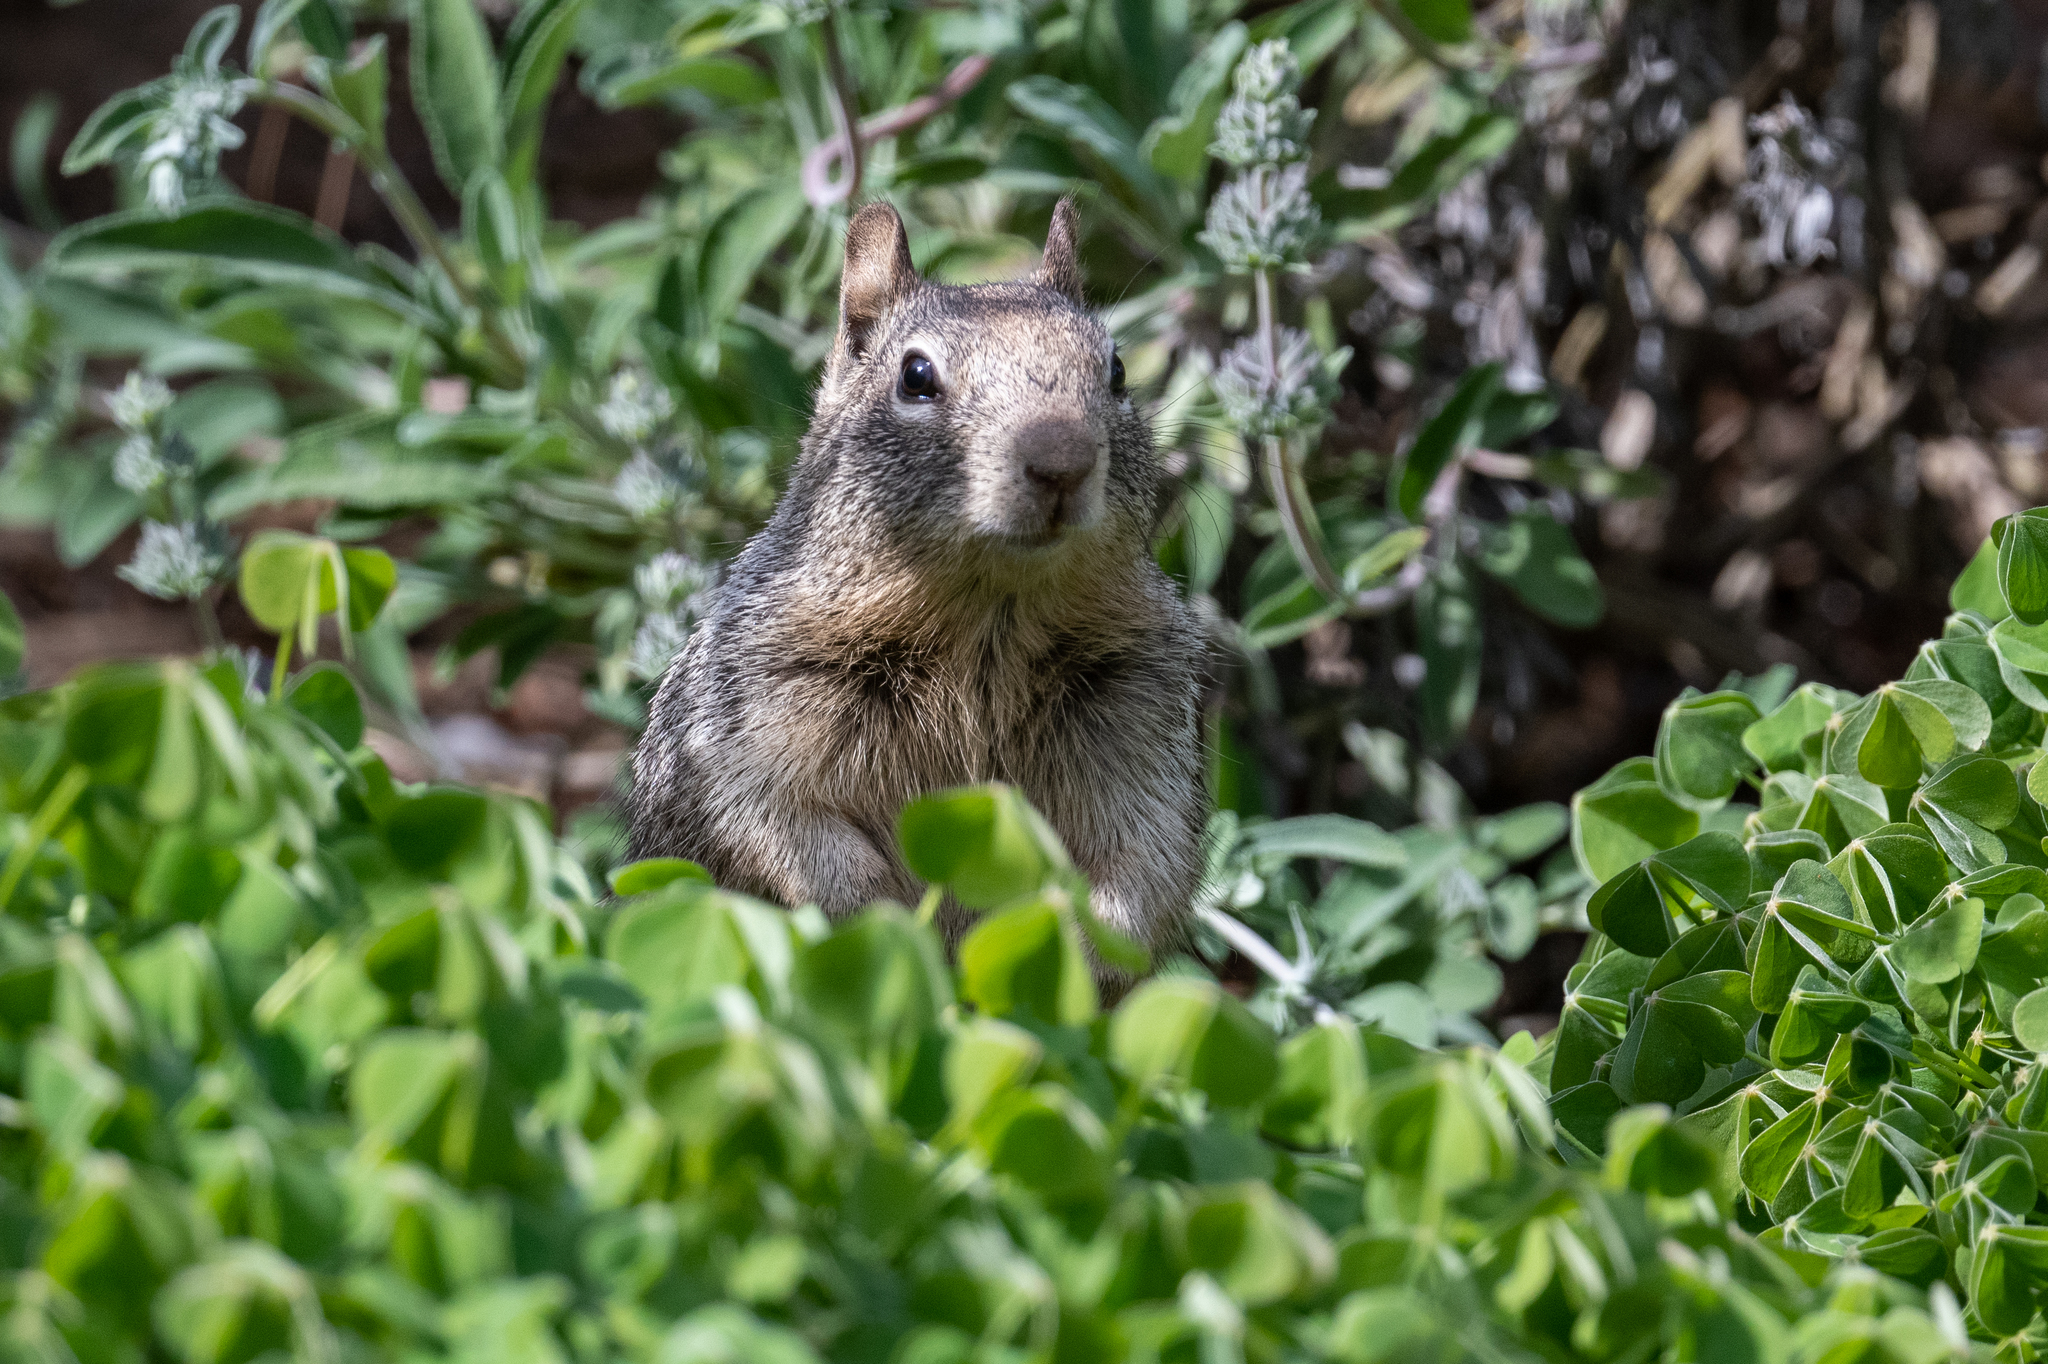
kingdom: Animalia
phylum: Chordata
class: Mammalia
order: Rodentia
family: Sciuridae
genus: Otospermophilus
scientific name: Otospermophilus beecheyi
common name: California ground squirrel
